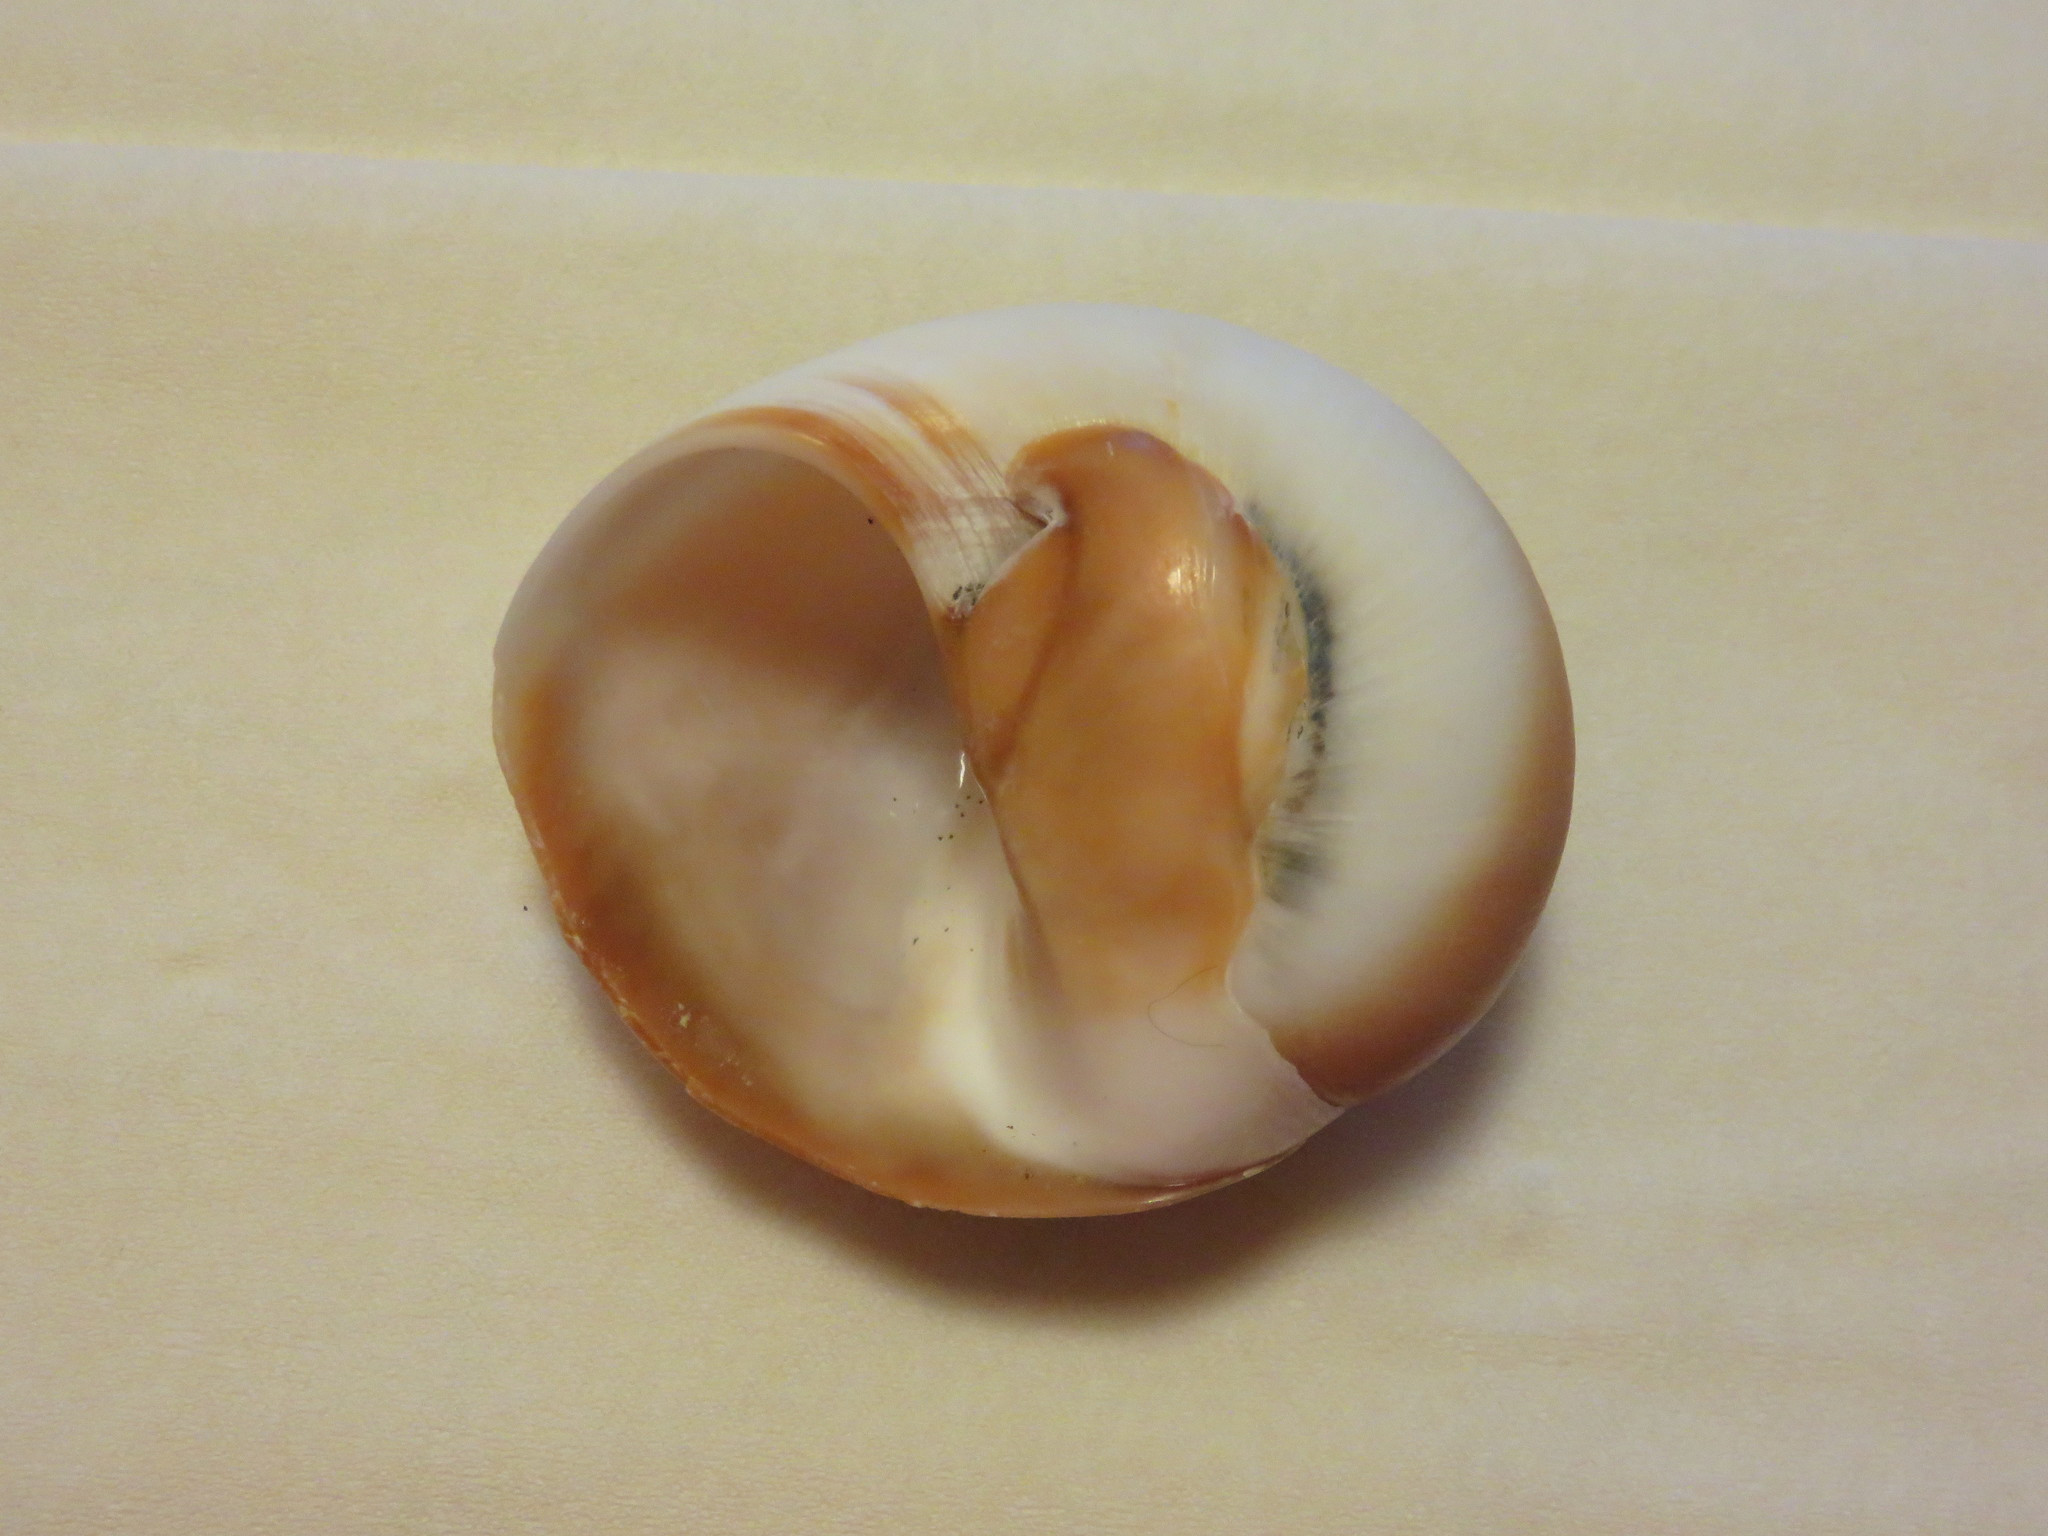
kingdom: Animalia
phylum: Mollusca
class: Gastropoda
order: Littorinimorpha
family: Naticidae
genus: Neverita
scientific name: Neverita didyma
